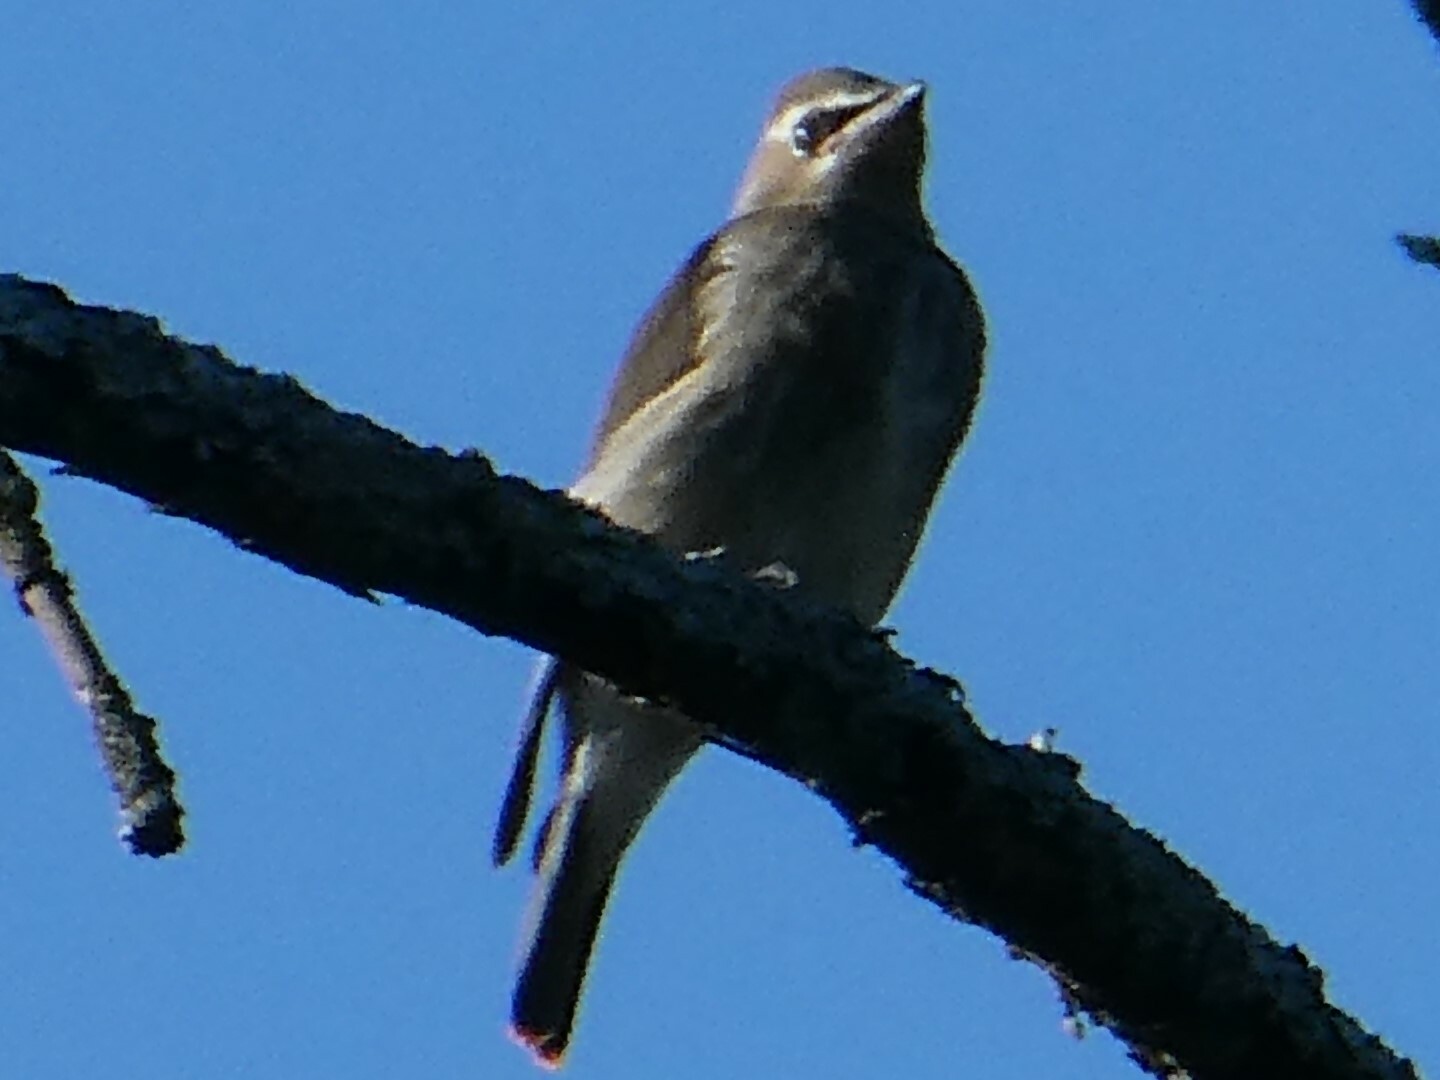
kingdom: Animalia
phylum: Chordata
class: Aves
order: Passeriformes
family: Bombycillidae
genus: Bombycilla
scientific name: Bombycilla cedrorum
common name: Cedar waxwing
